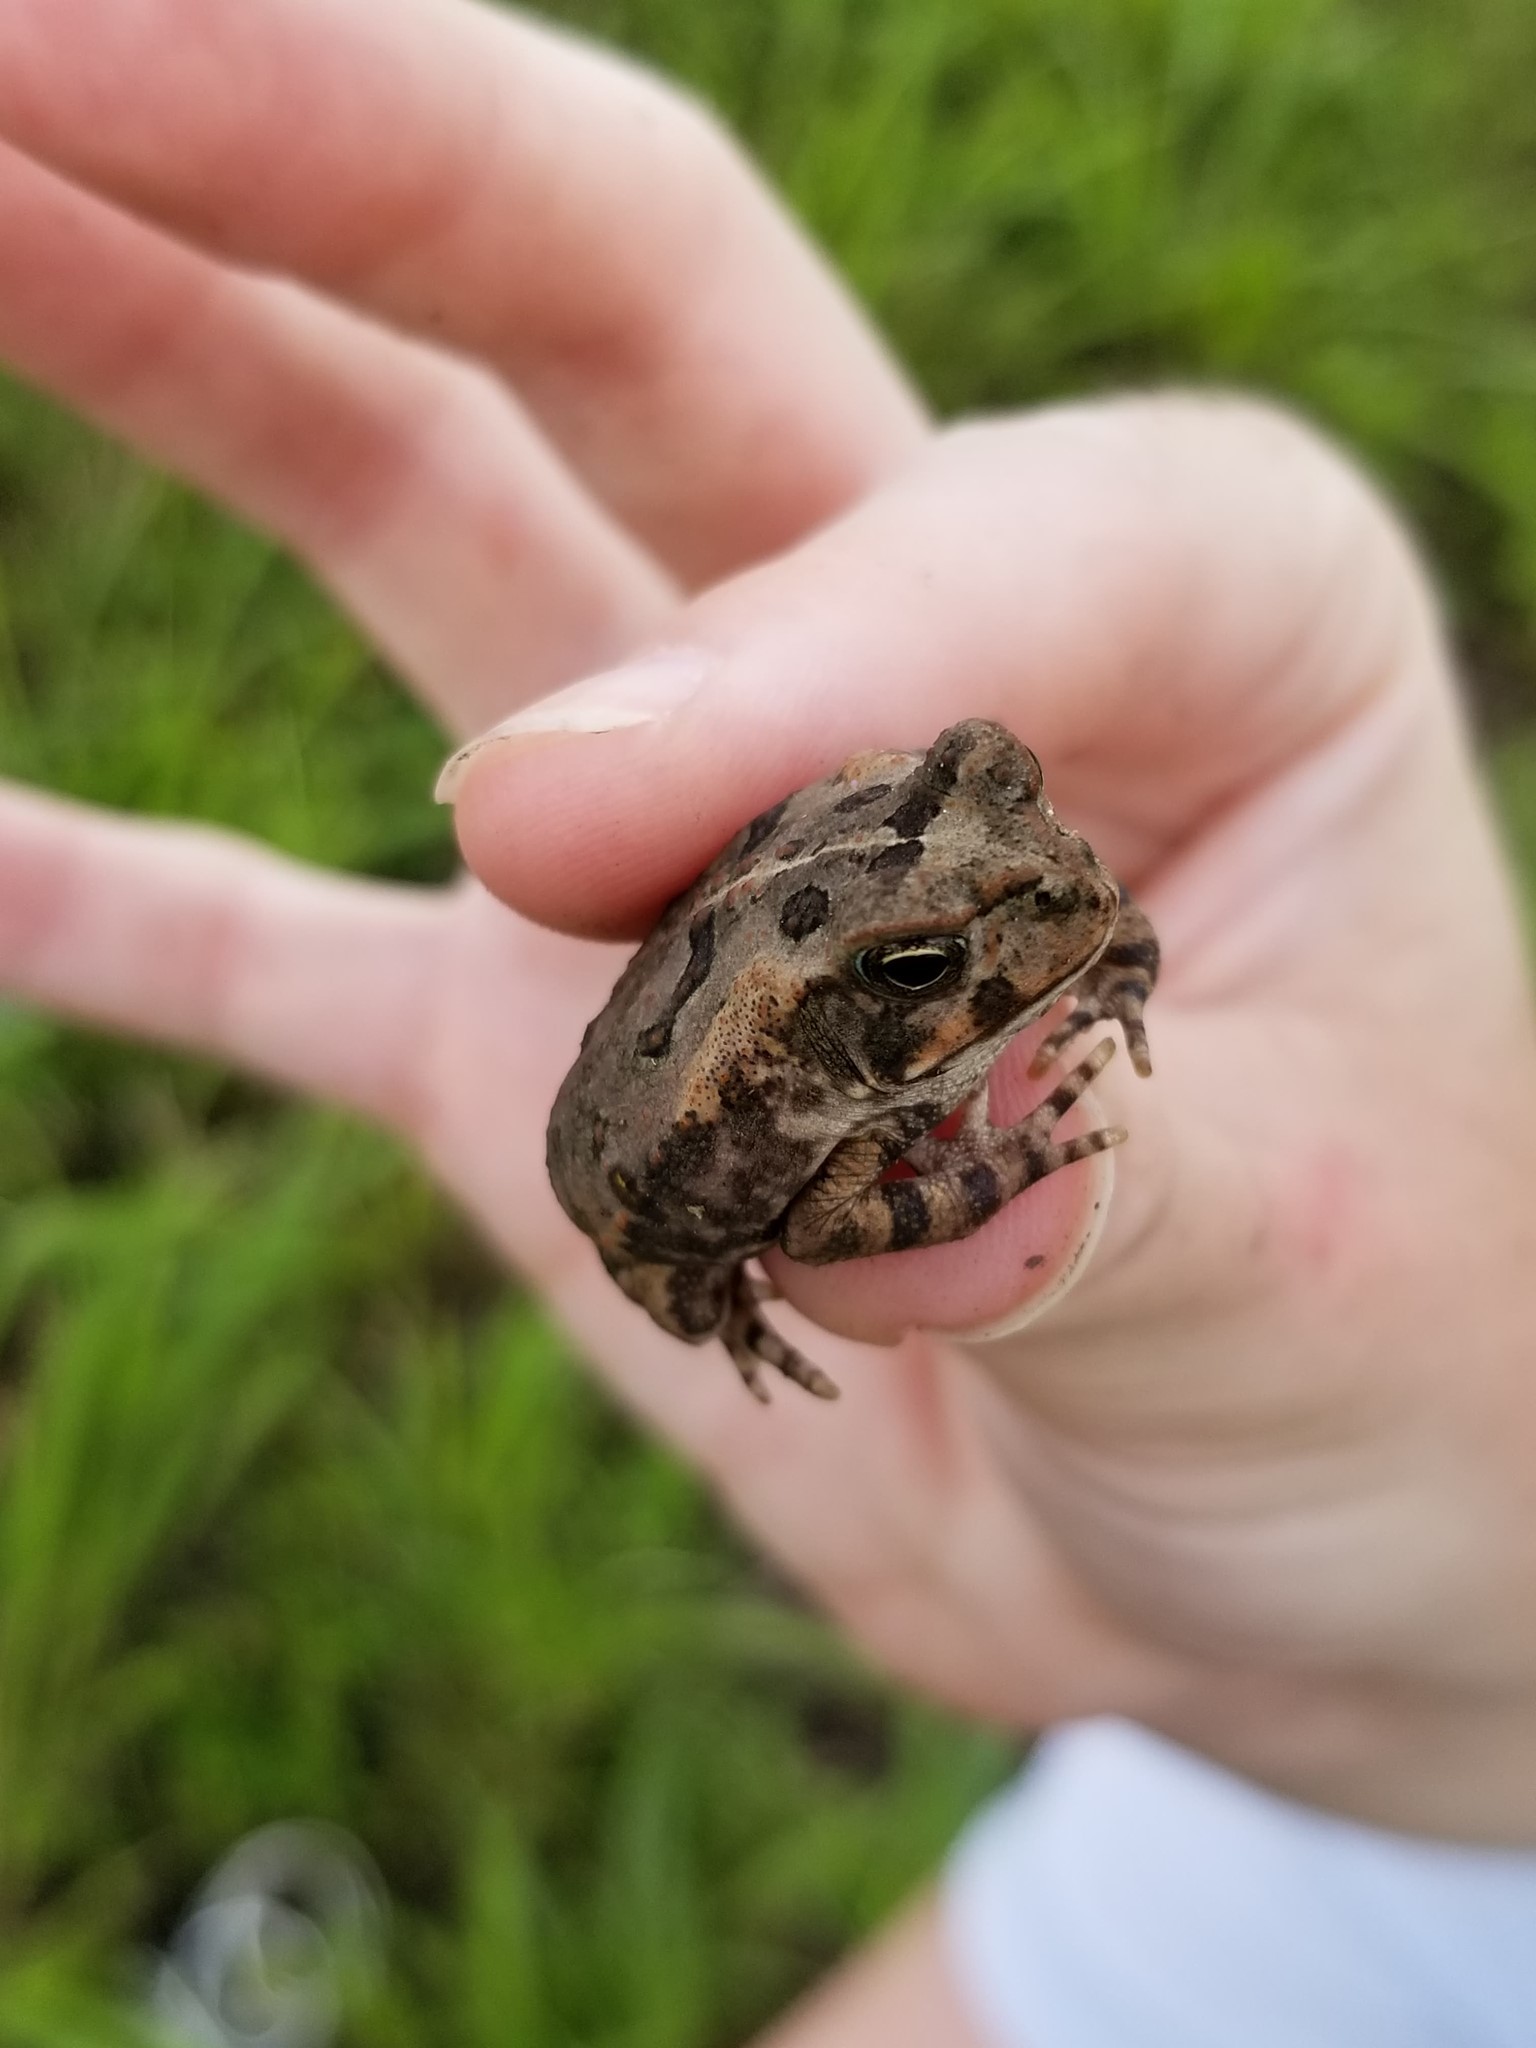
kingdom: Animalia
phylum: Chordata
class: Amphibia
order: Anura
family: Bufonidae
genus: Rhinella
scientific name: Rhinella marina
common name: Cane toad
